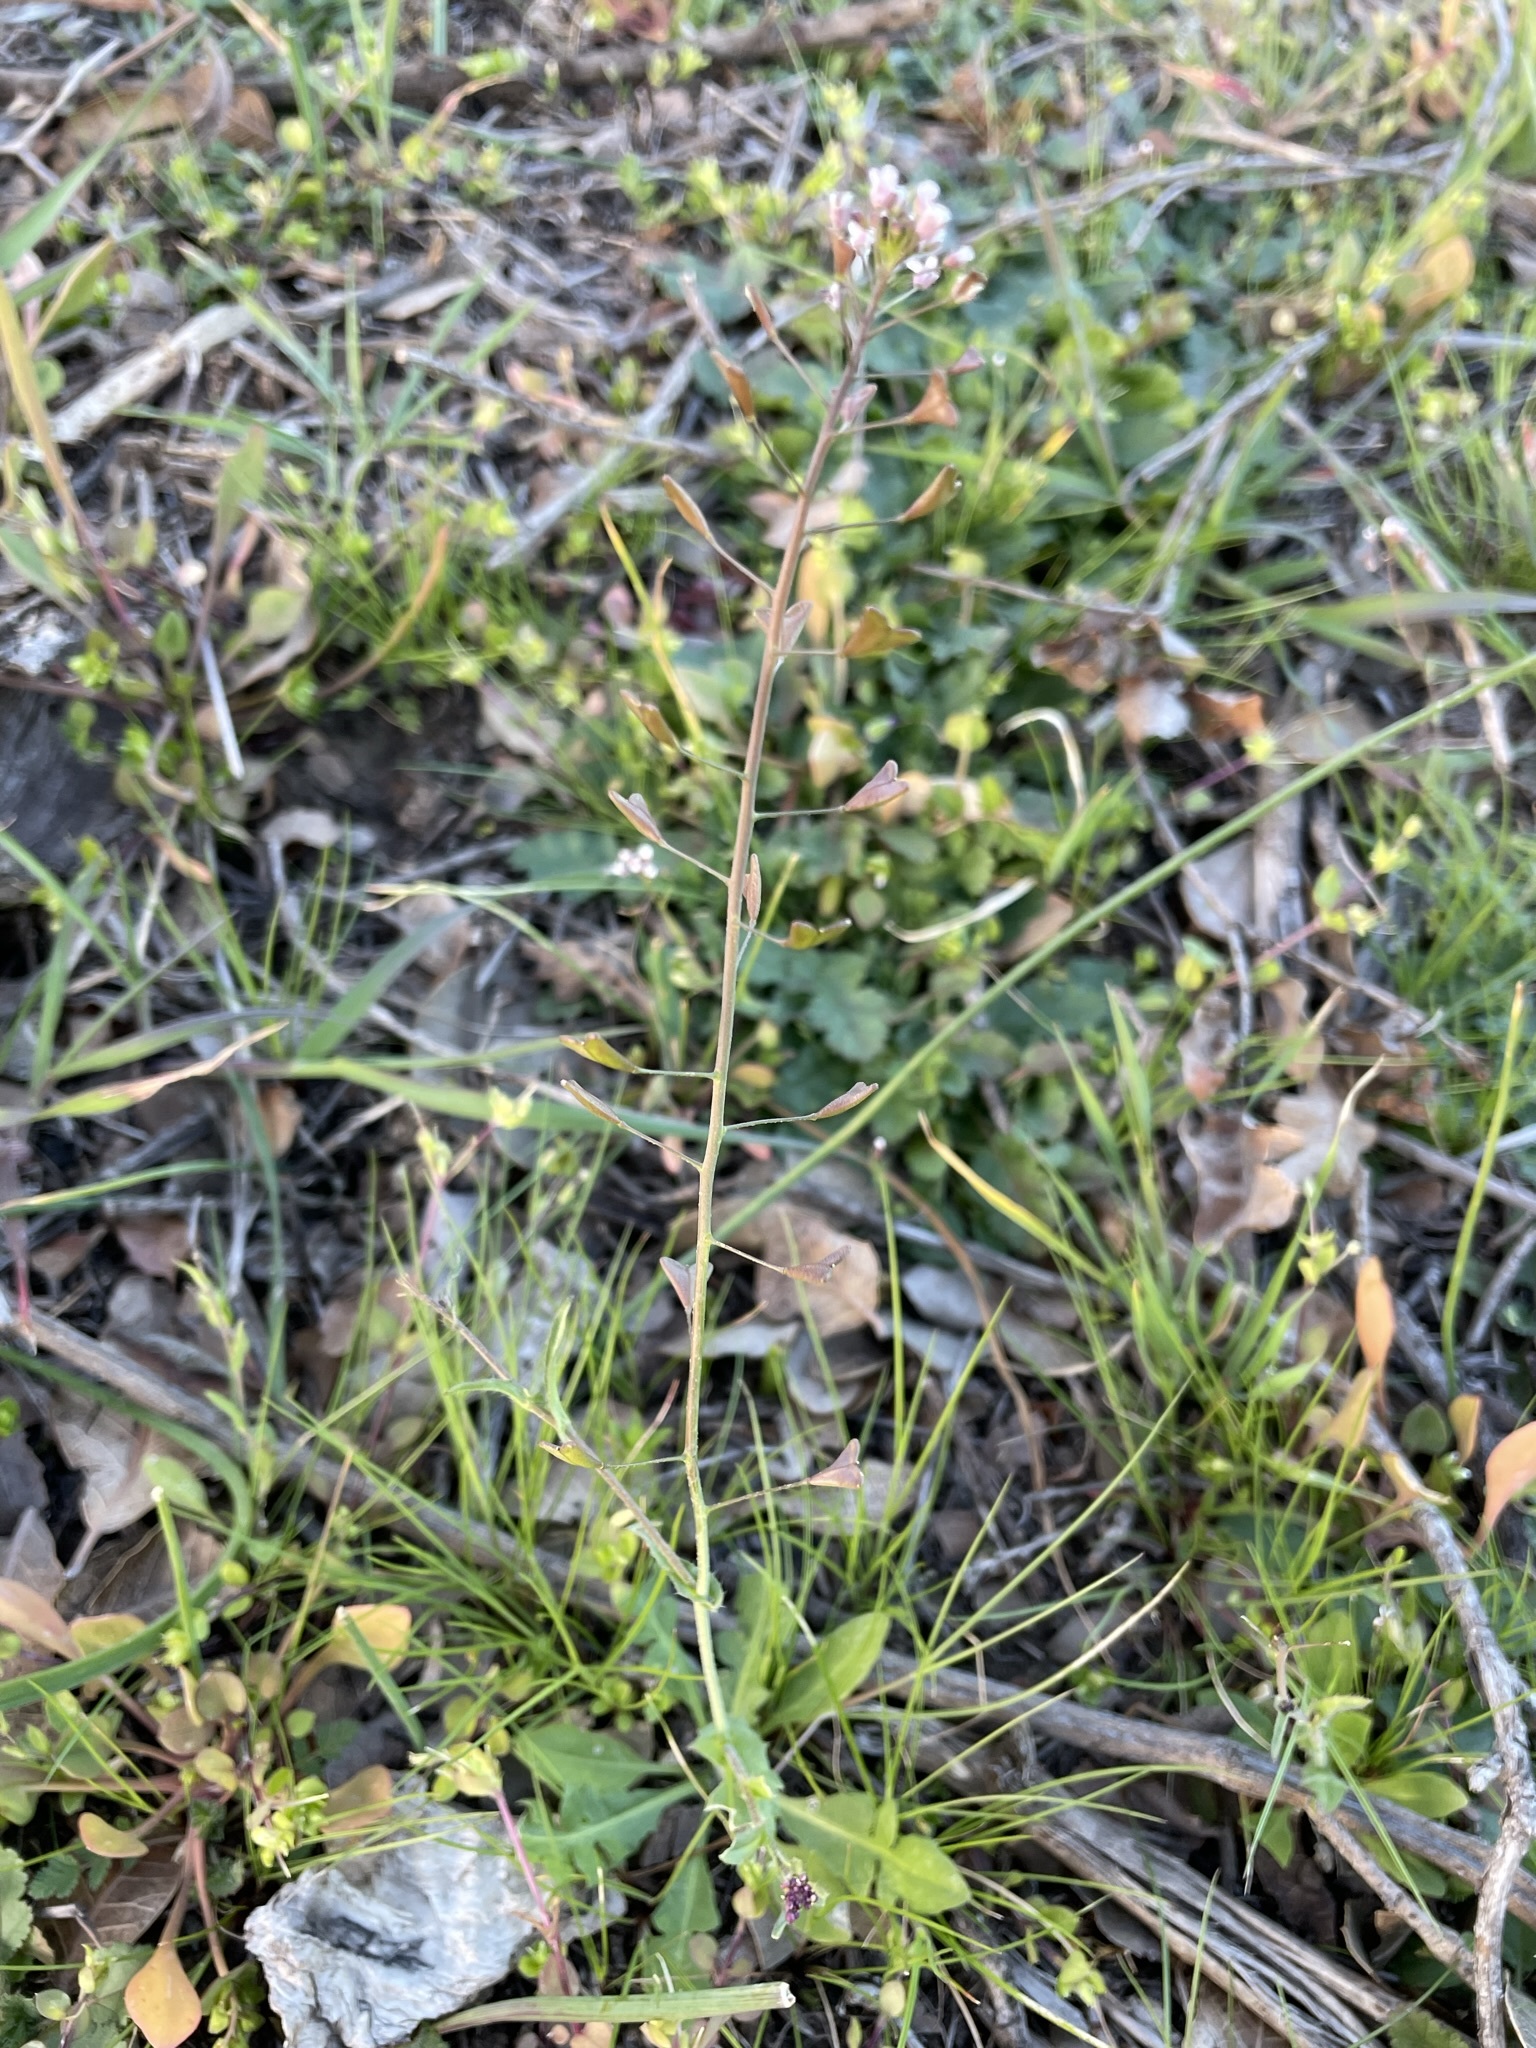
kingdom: Plantae
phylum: Tracheophyta
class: Magnoliopsida
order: Brassicales
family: Brassicaceae
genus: Capsella
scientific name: Capsella bursa-pastoris
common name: Shepherd's purse
